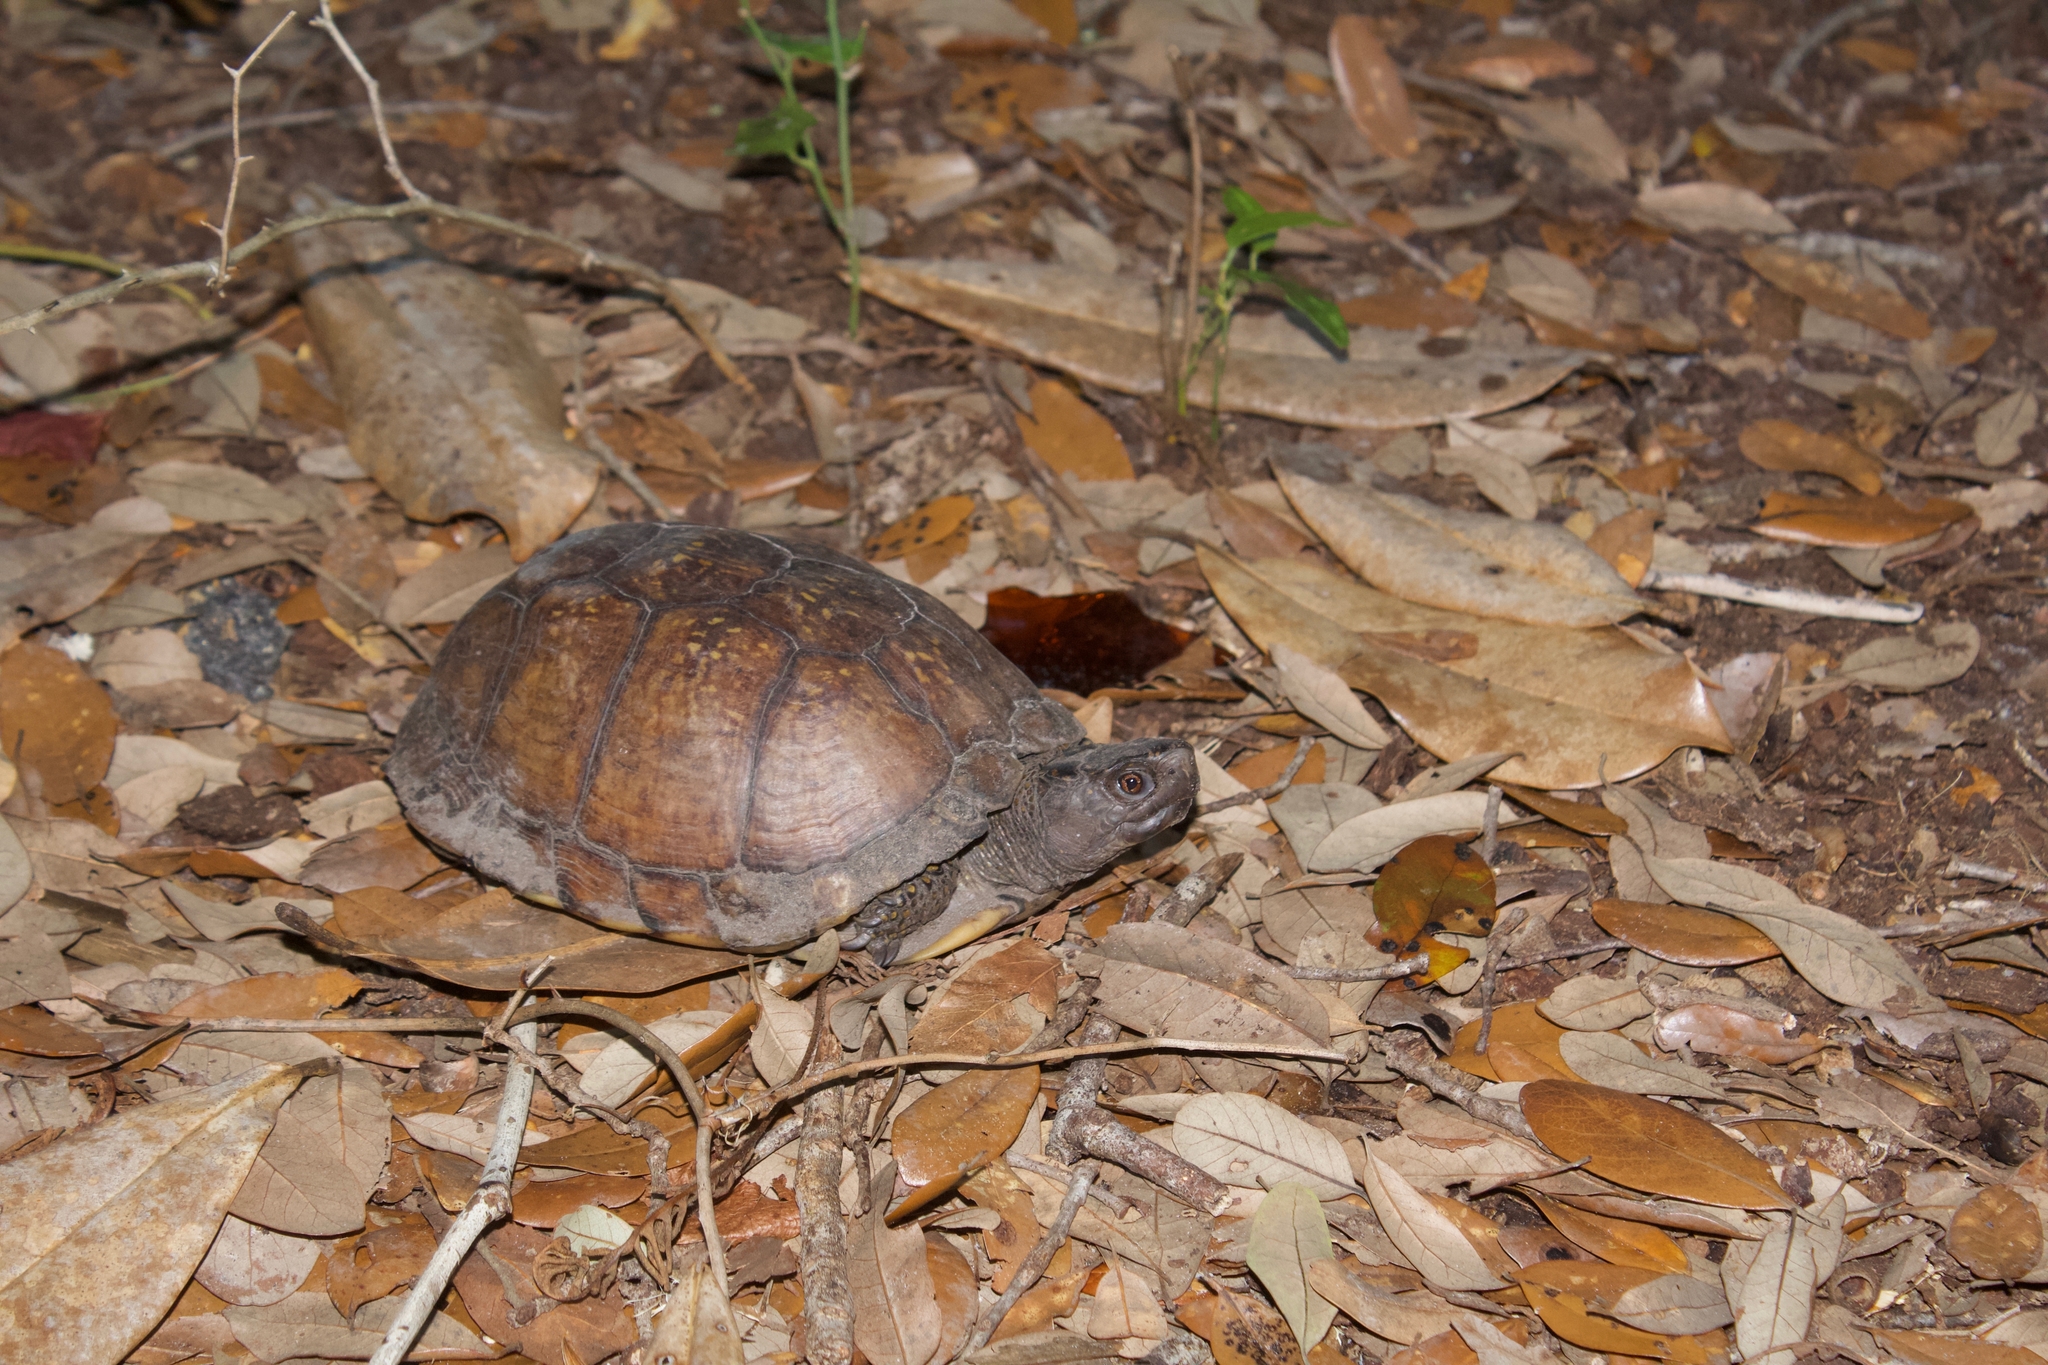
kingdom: Animalia
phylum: Chordata
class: Testudines
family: Emydidae
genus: Terrapene
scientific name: Terrapene carolina
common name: Common box turtle
